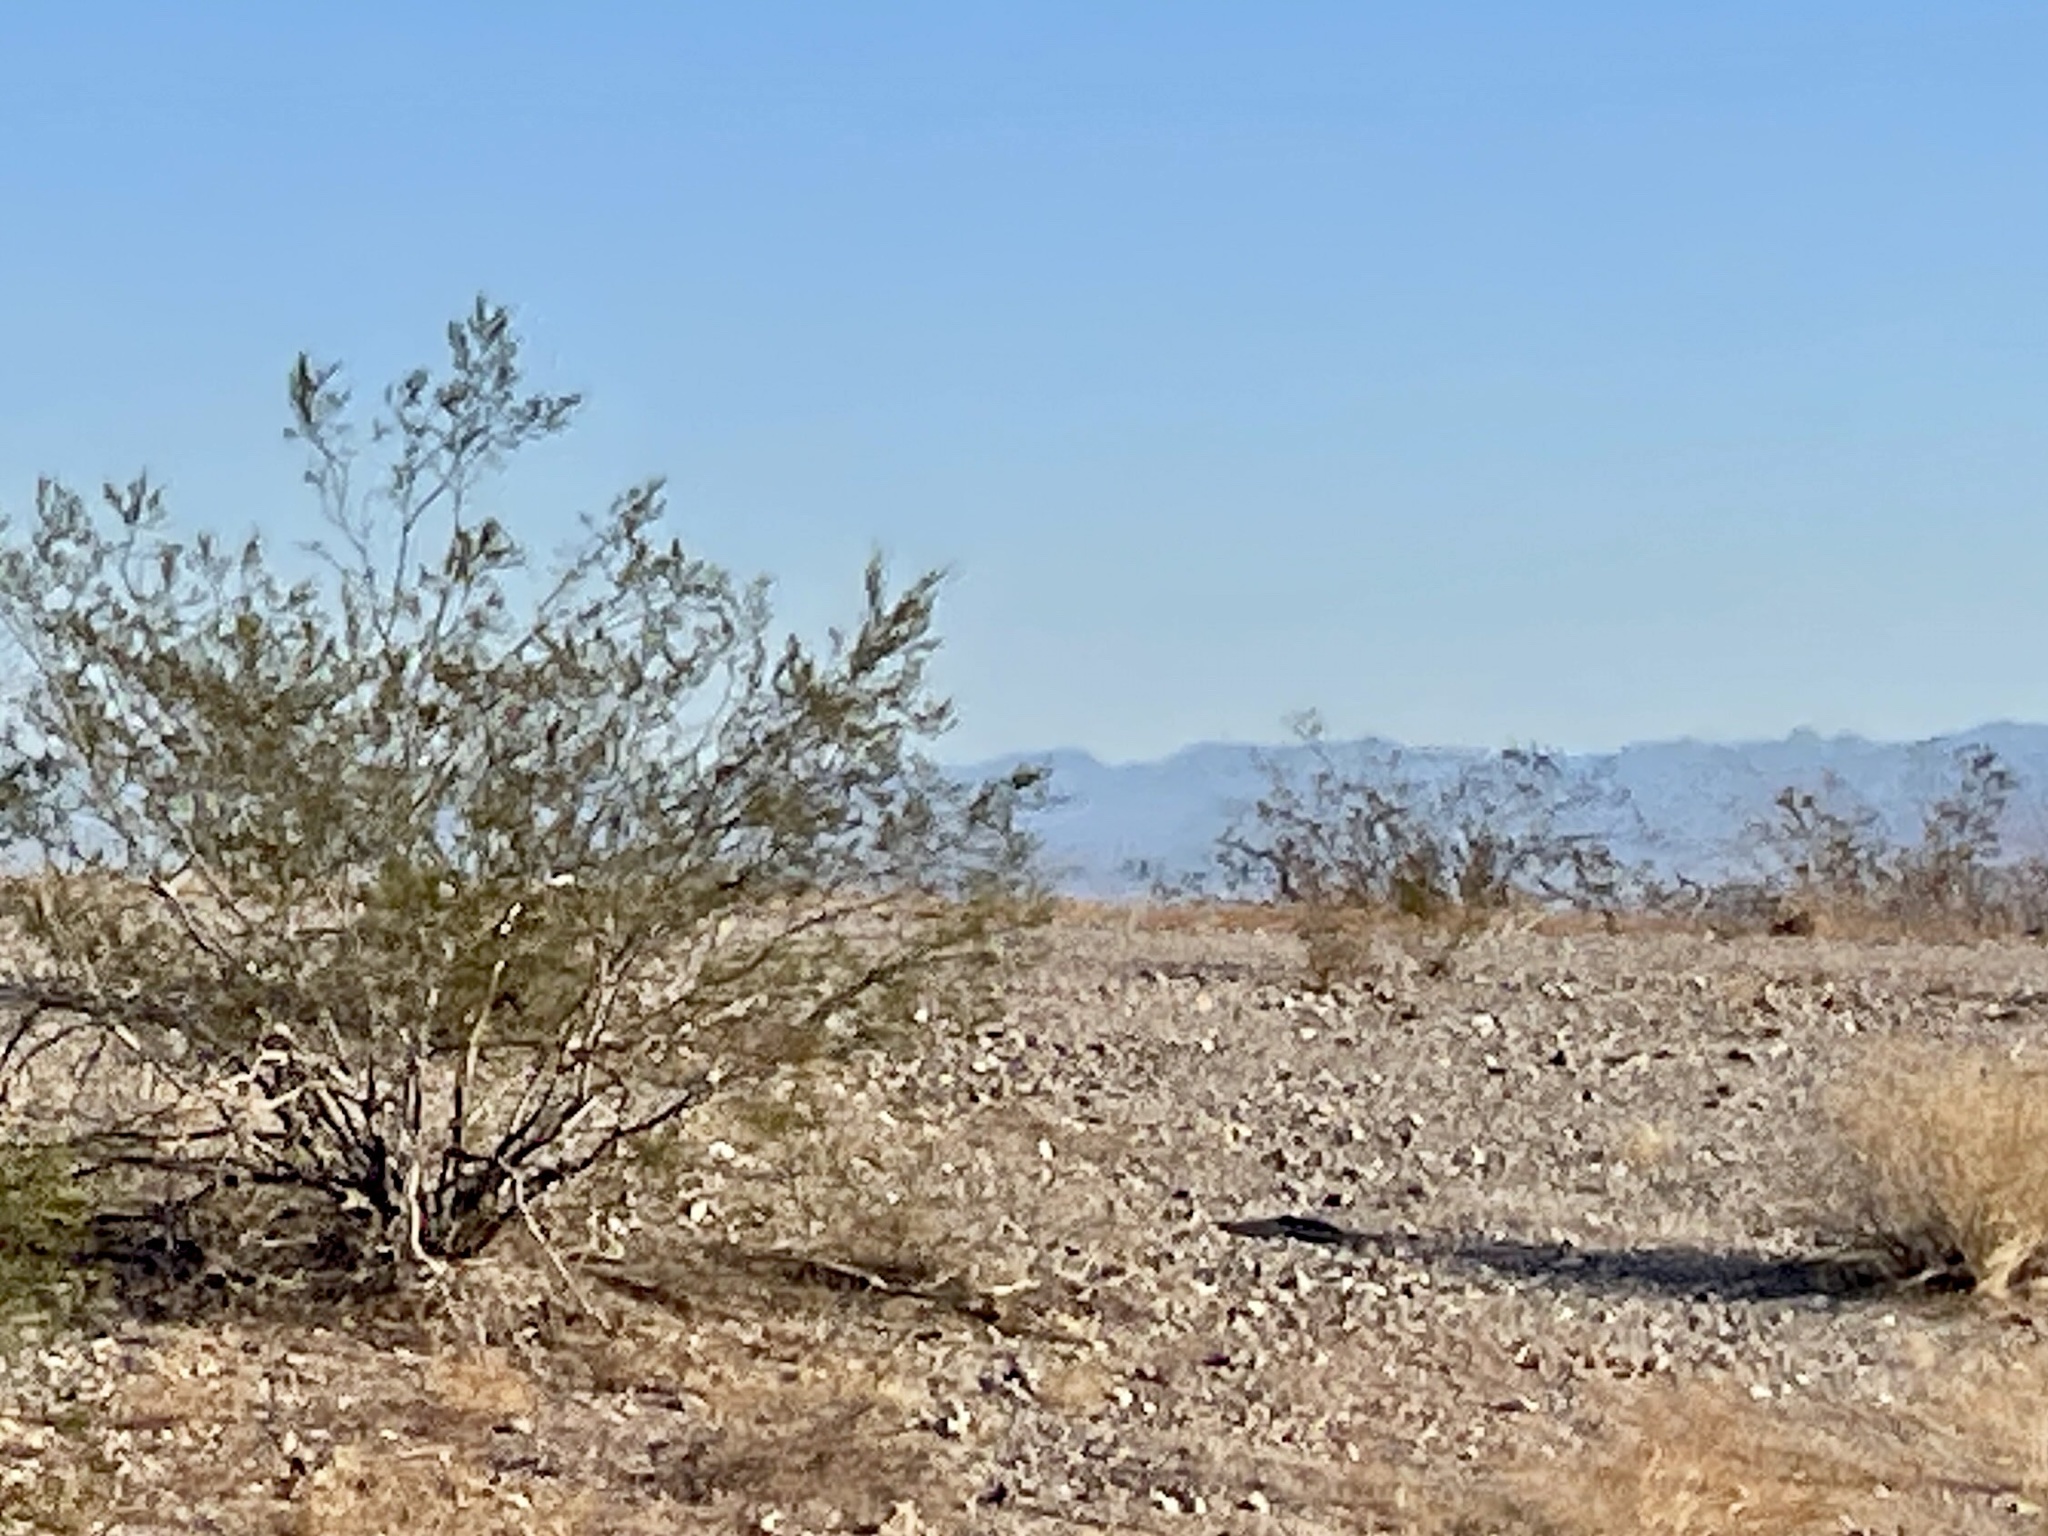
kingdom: Plantae
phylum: Tracheophyta
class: Magnoliopsida
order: Zygophyllales
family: Zygophyllaceae
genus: Larrea
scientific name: Larrea tridentata
